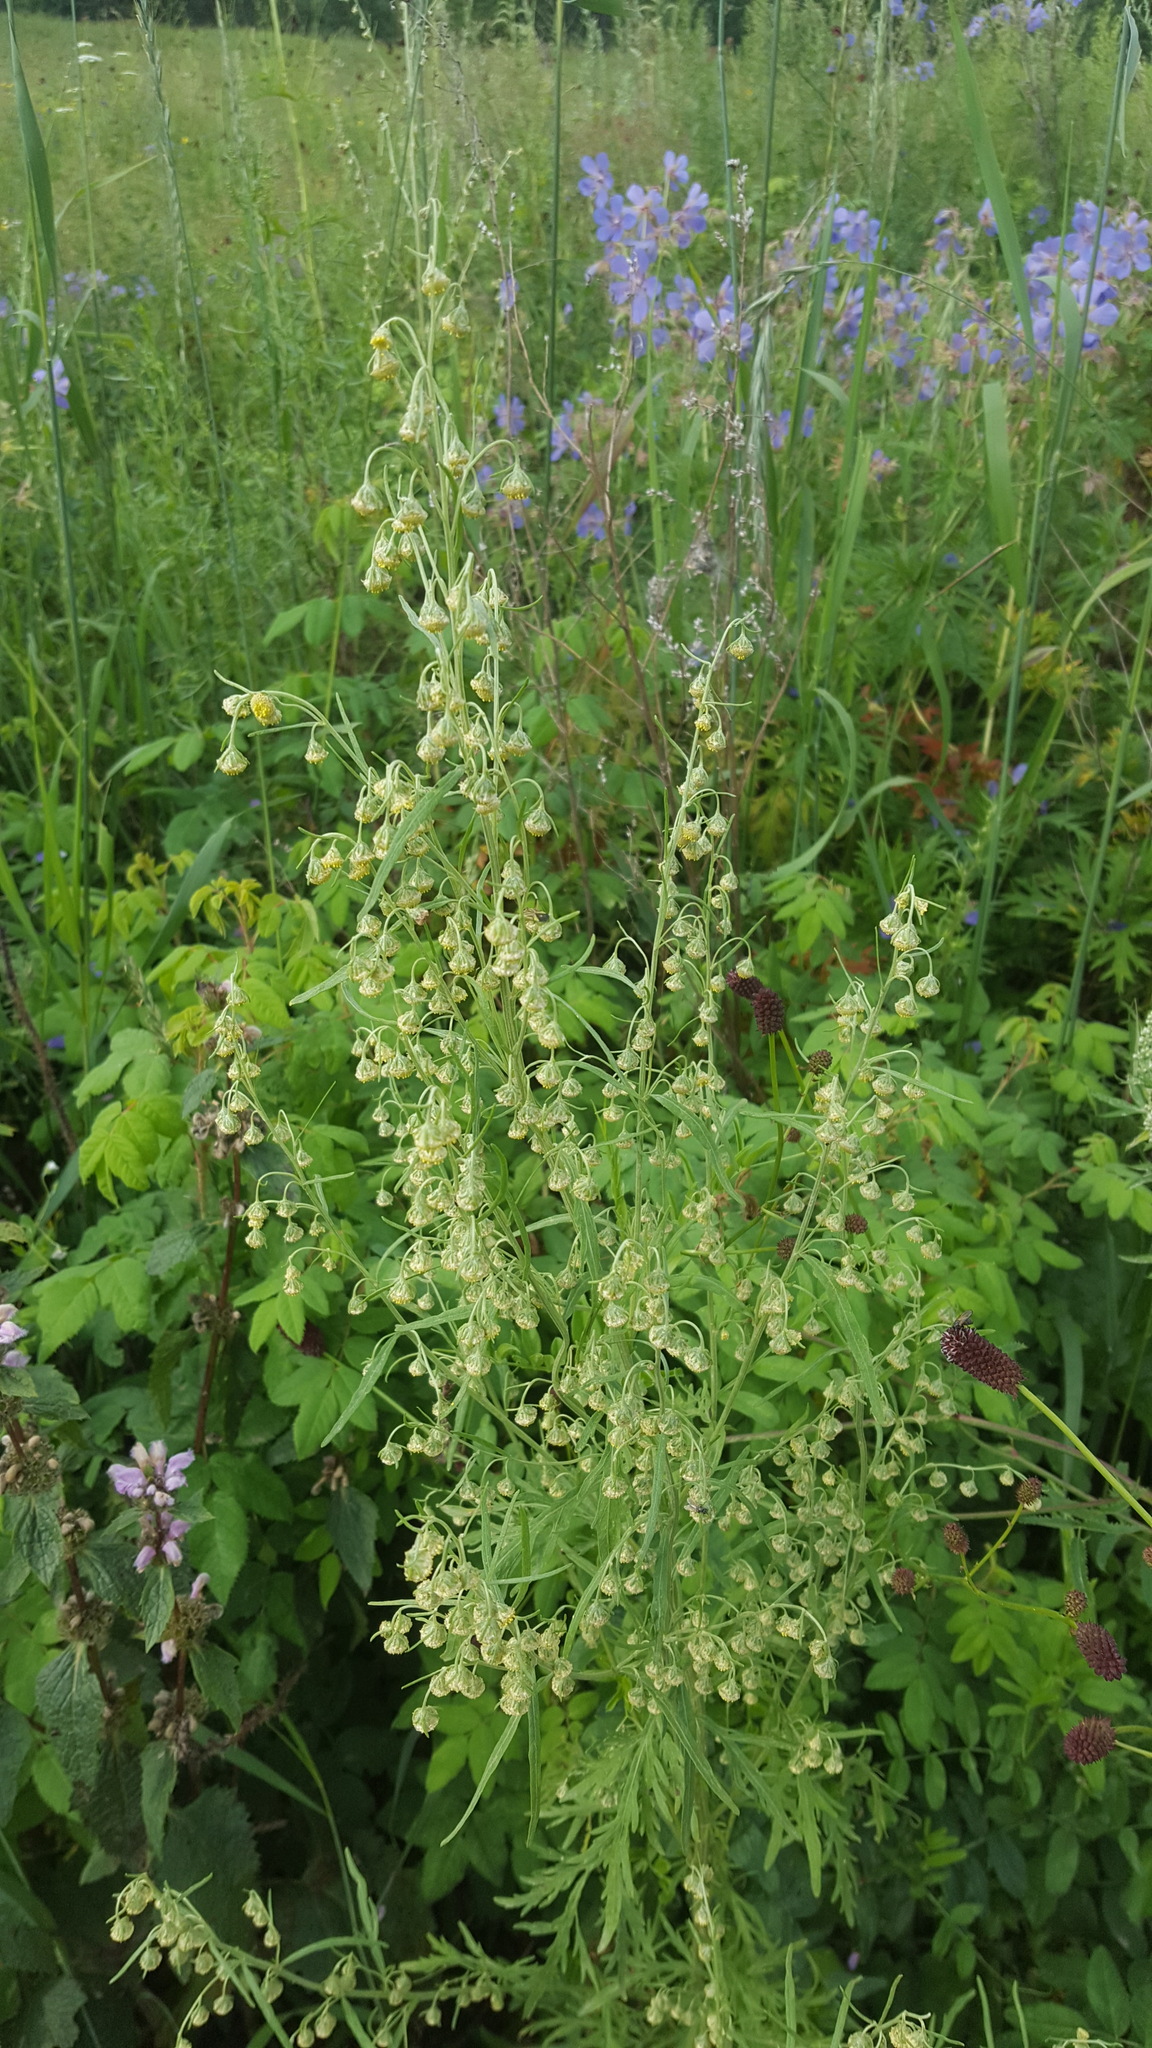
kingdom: Plantae
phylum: Tracheophyta
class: Magnoliopsida
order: Asterales
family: Asteraceae
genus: Artemisia
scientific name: Artemisia sieversiana
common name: Sieversian wormwood
